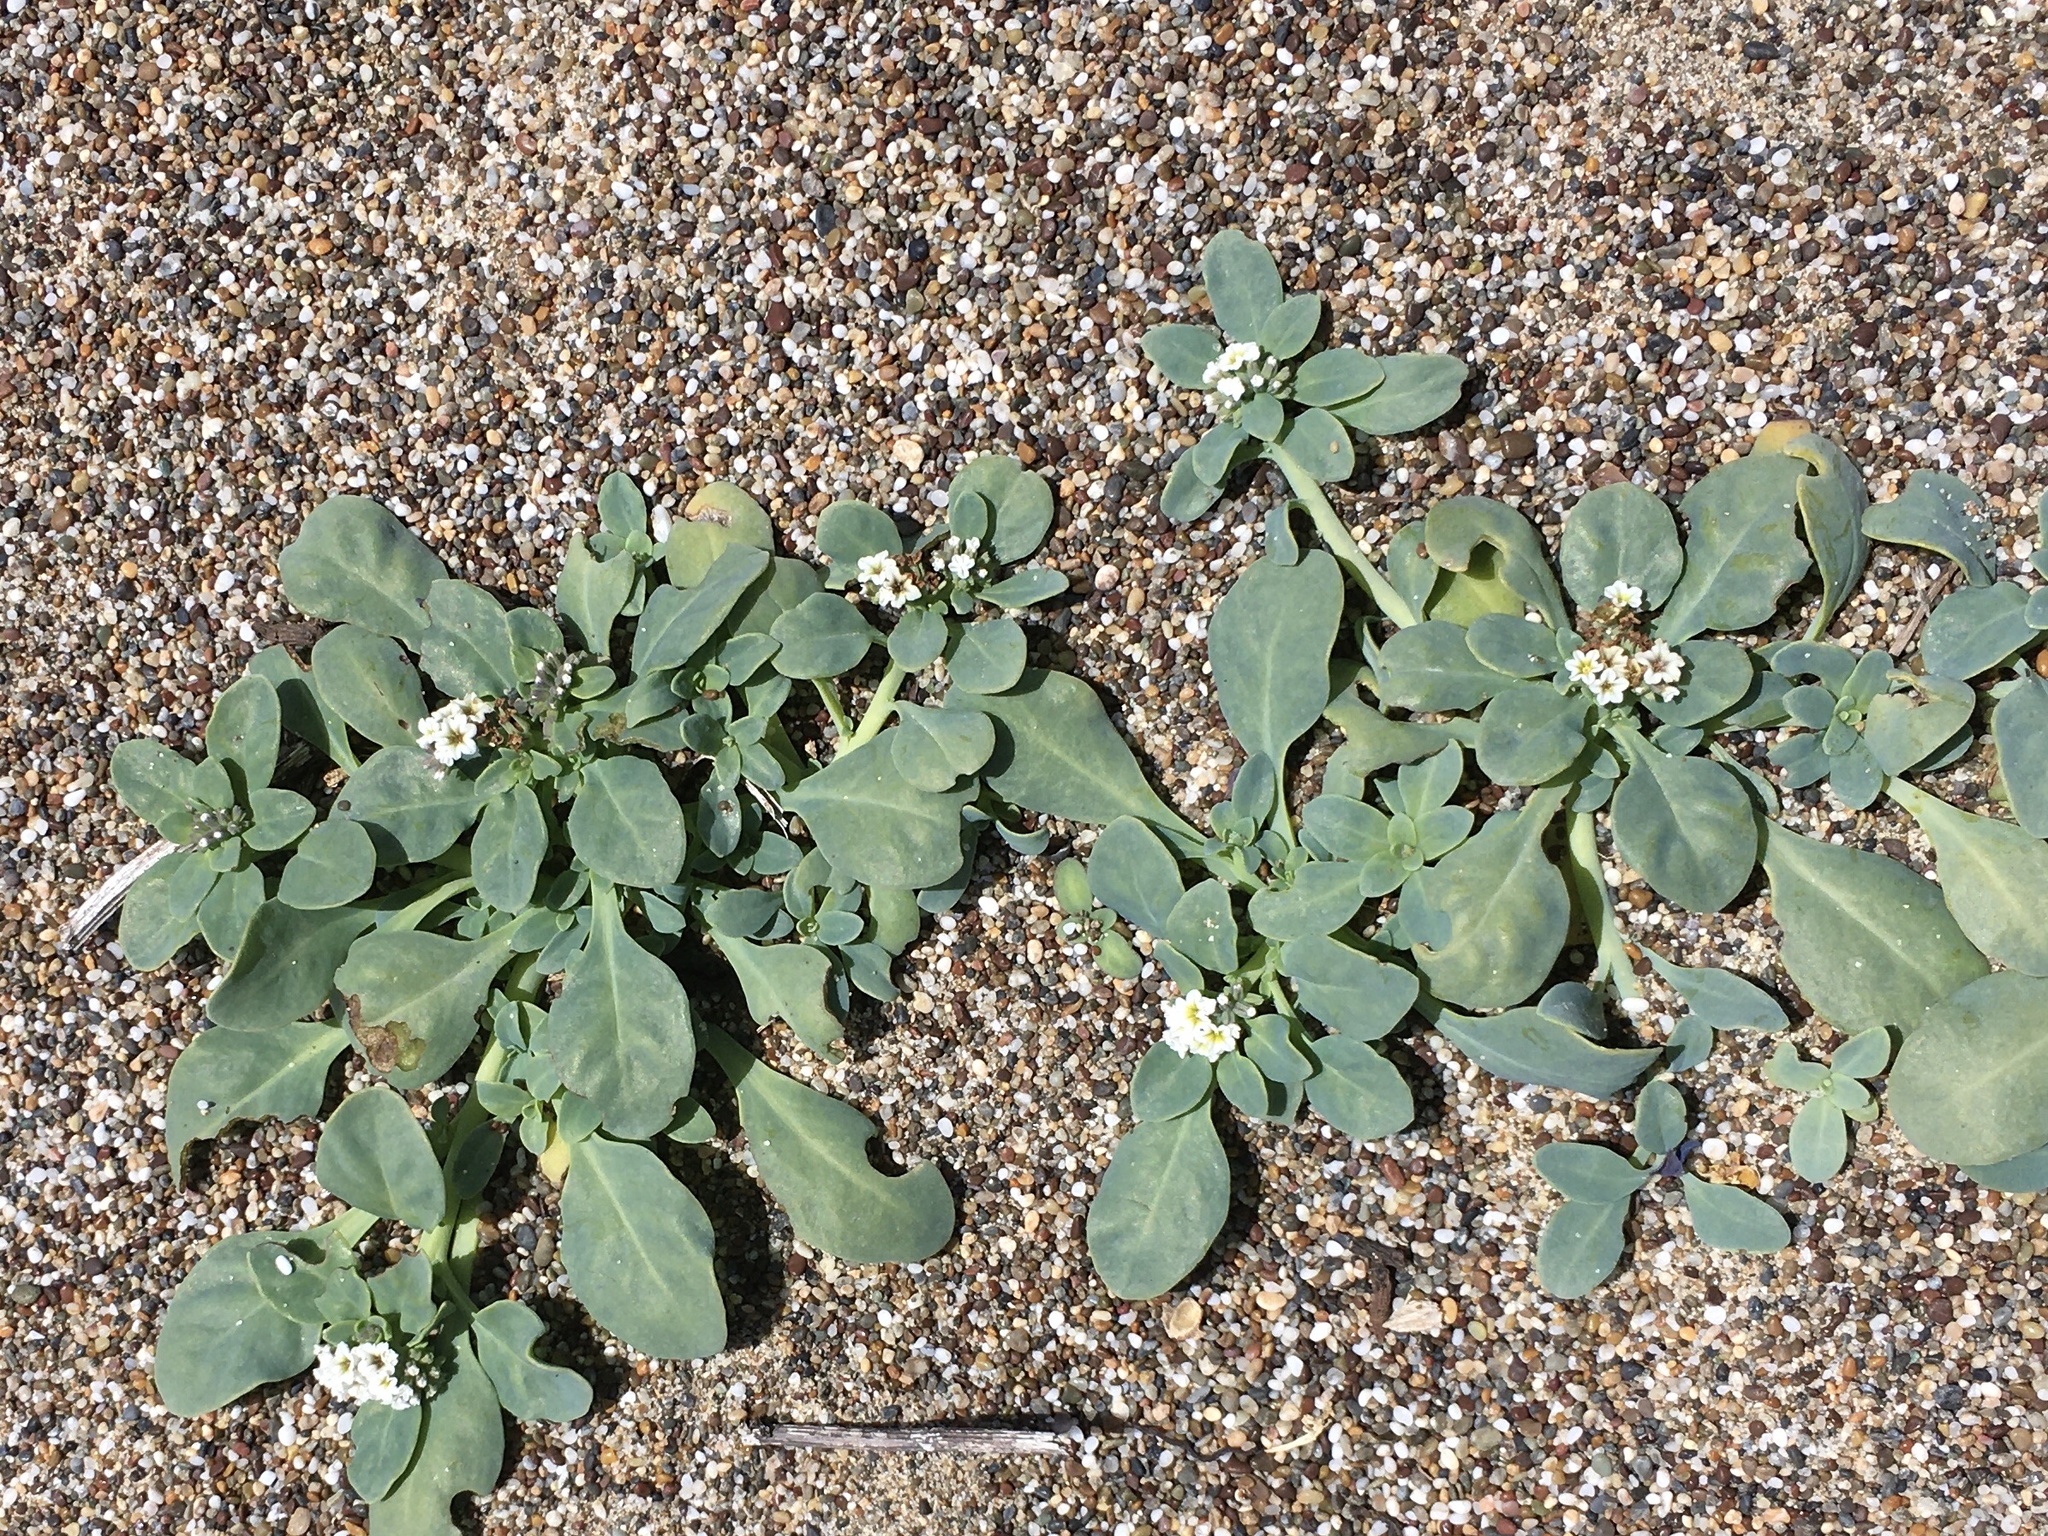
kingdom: Plantae
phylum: Tracheophyta
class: Magnoliopsida
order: Boraginales
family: Heliotropiaceae
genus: Heliotropium
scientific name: Heliotropium curassavicum
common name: Seaside heliotrope
